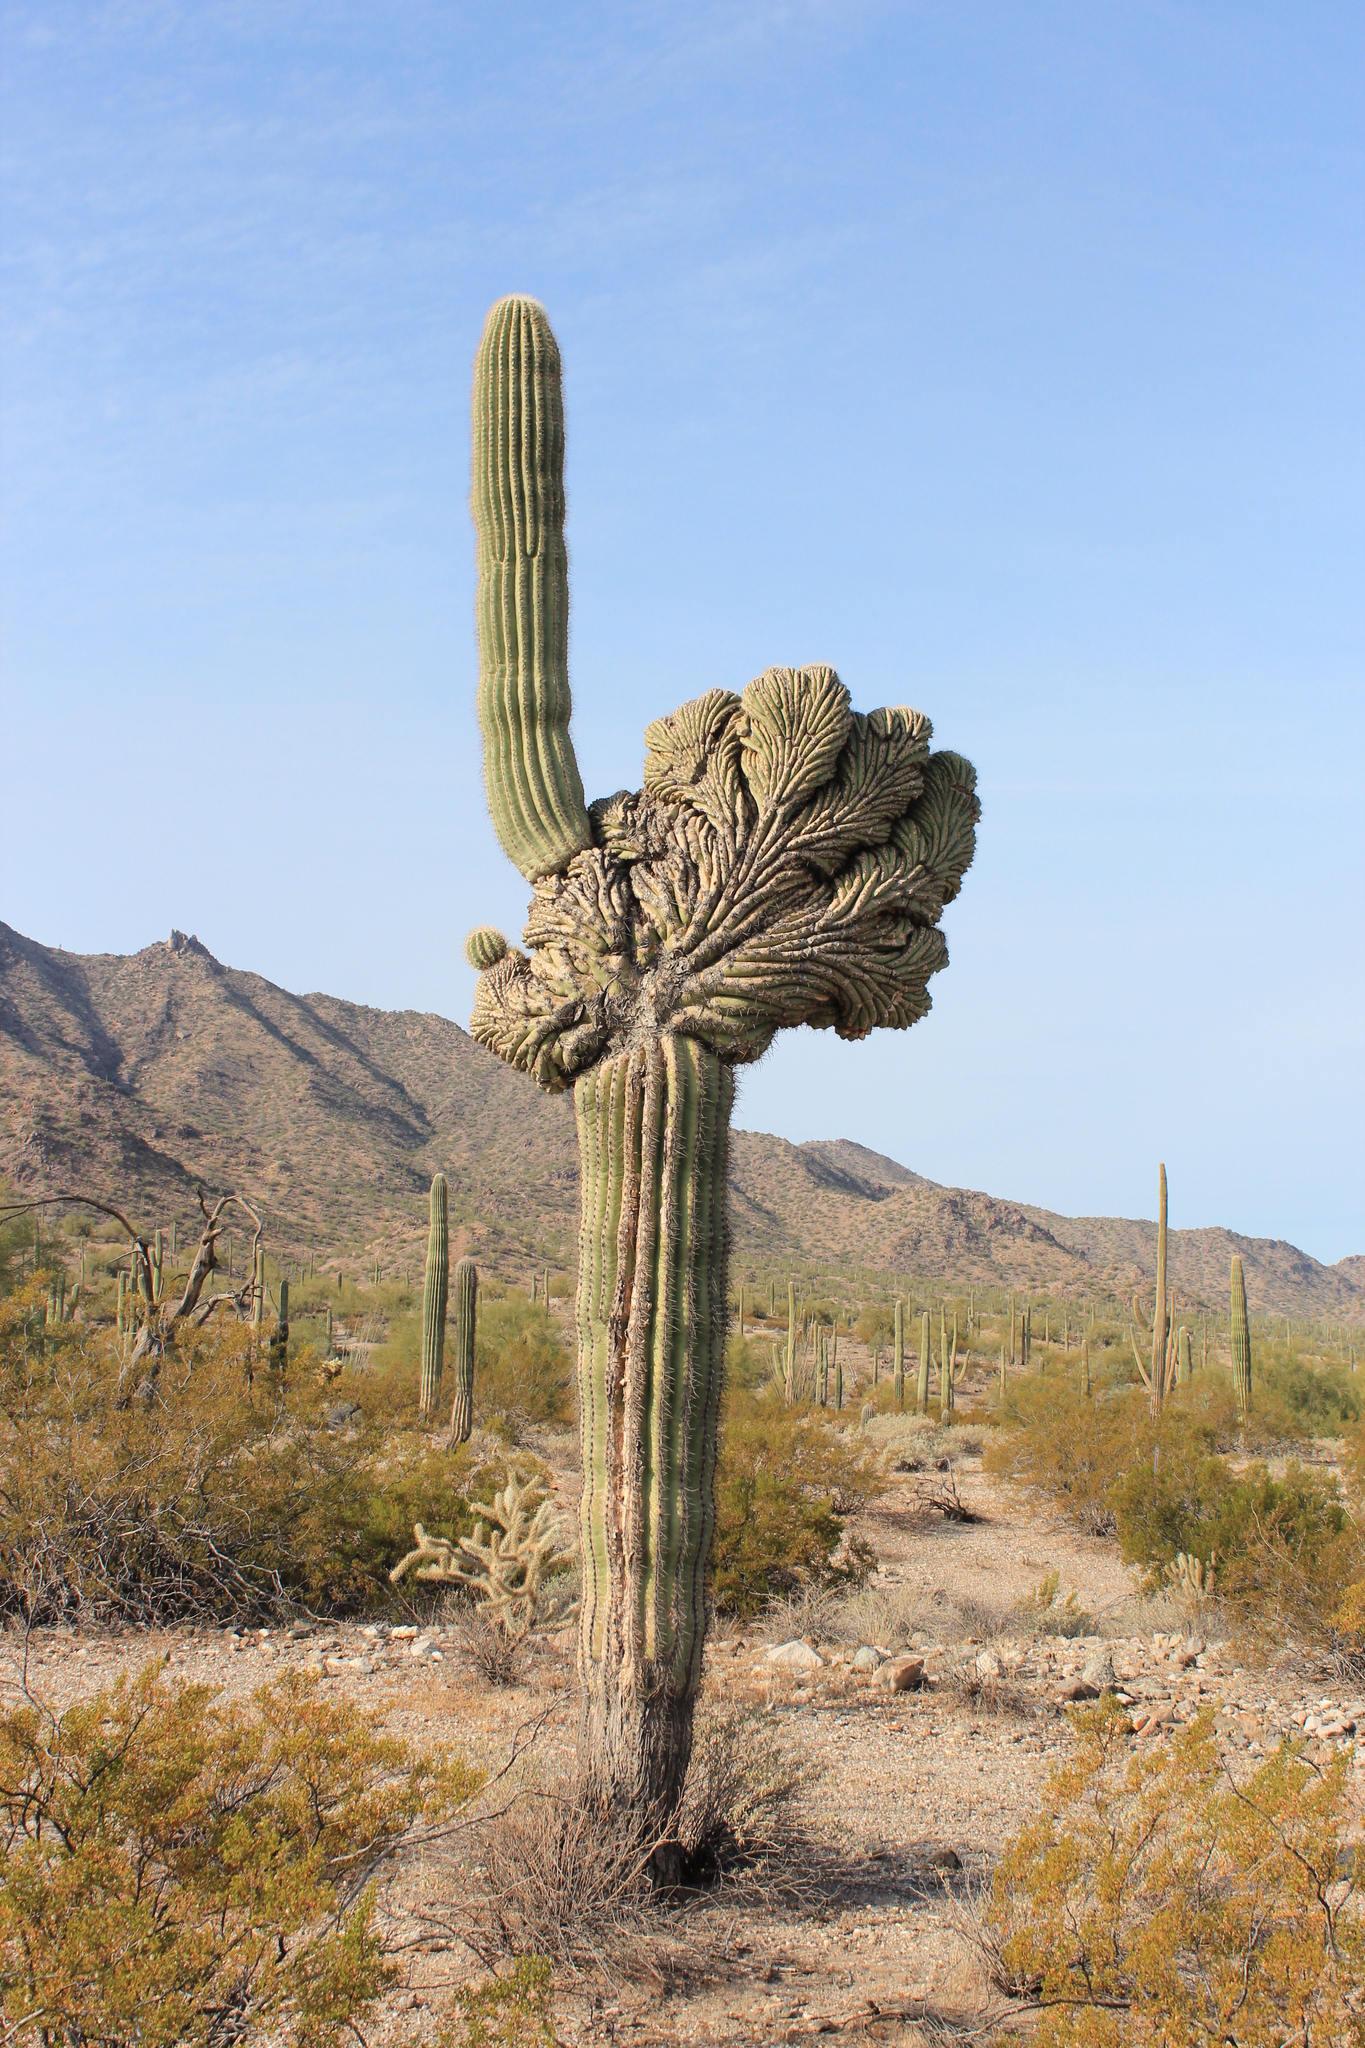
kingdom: Plantae
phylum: Tracheophyta
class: Magnoliopsida
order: Caryophyllales
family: Cactaceae
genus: Carnegiea
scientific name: Carnegiea gigantea
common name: Saguaro
